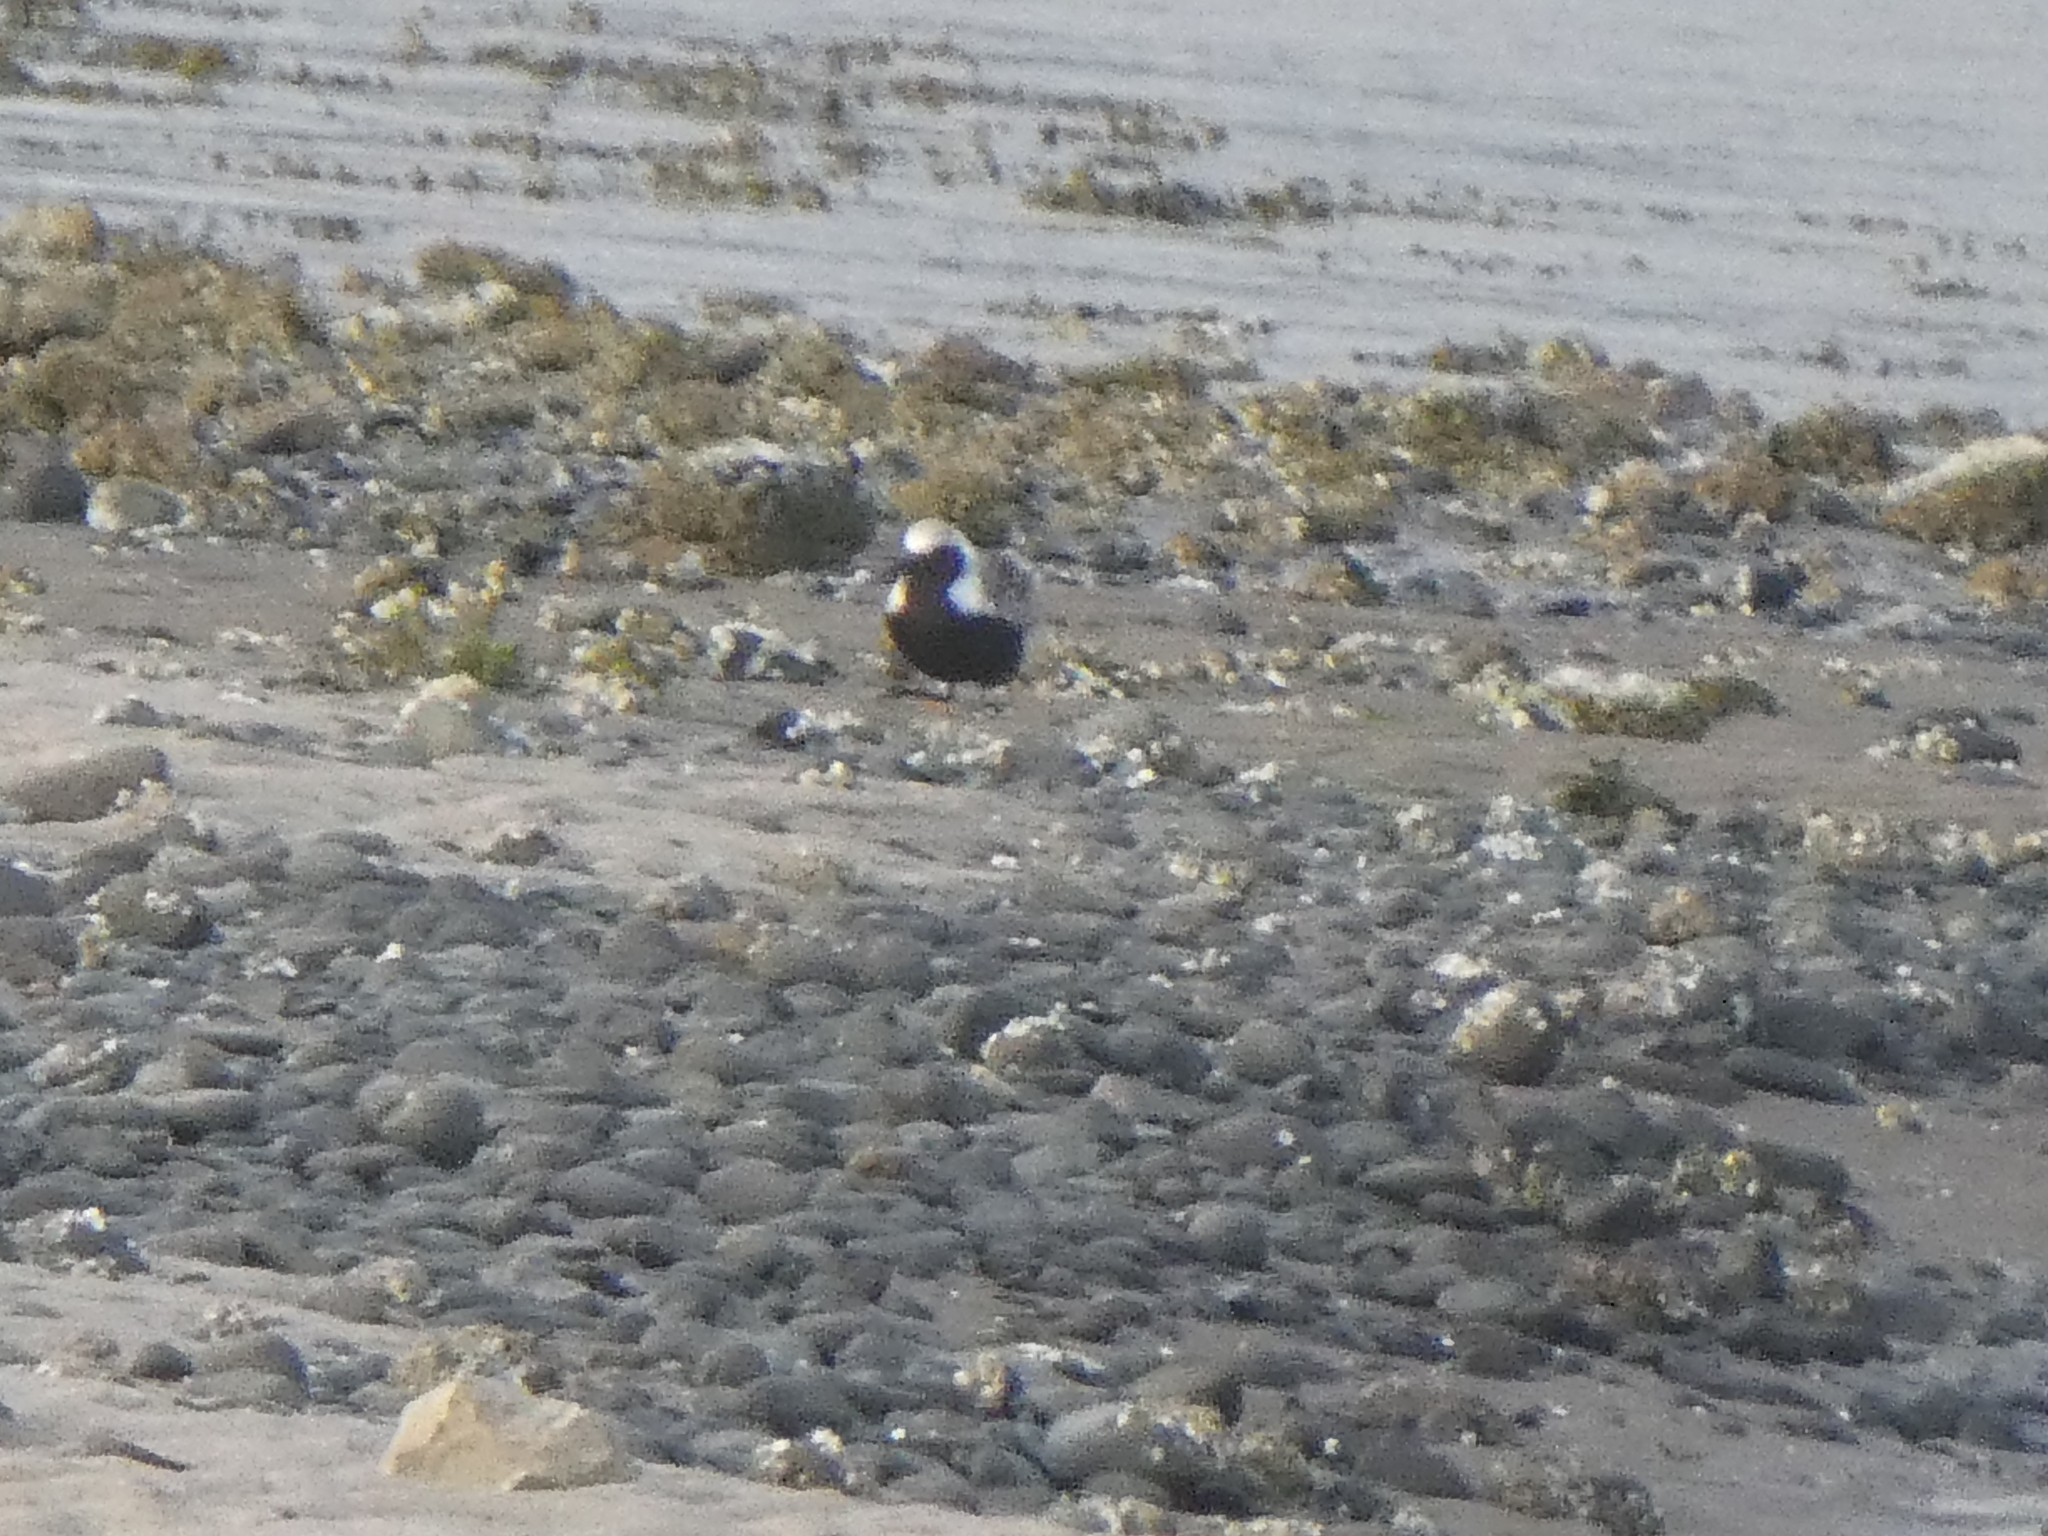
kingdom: Animalia
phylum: Chordata
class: Aves
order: Charadriiformes
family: Charadriidae
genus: Pluvialis
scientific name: Pluvialis squatarola
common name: Grey plover
